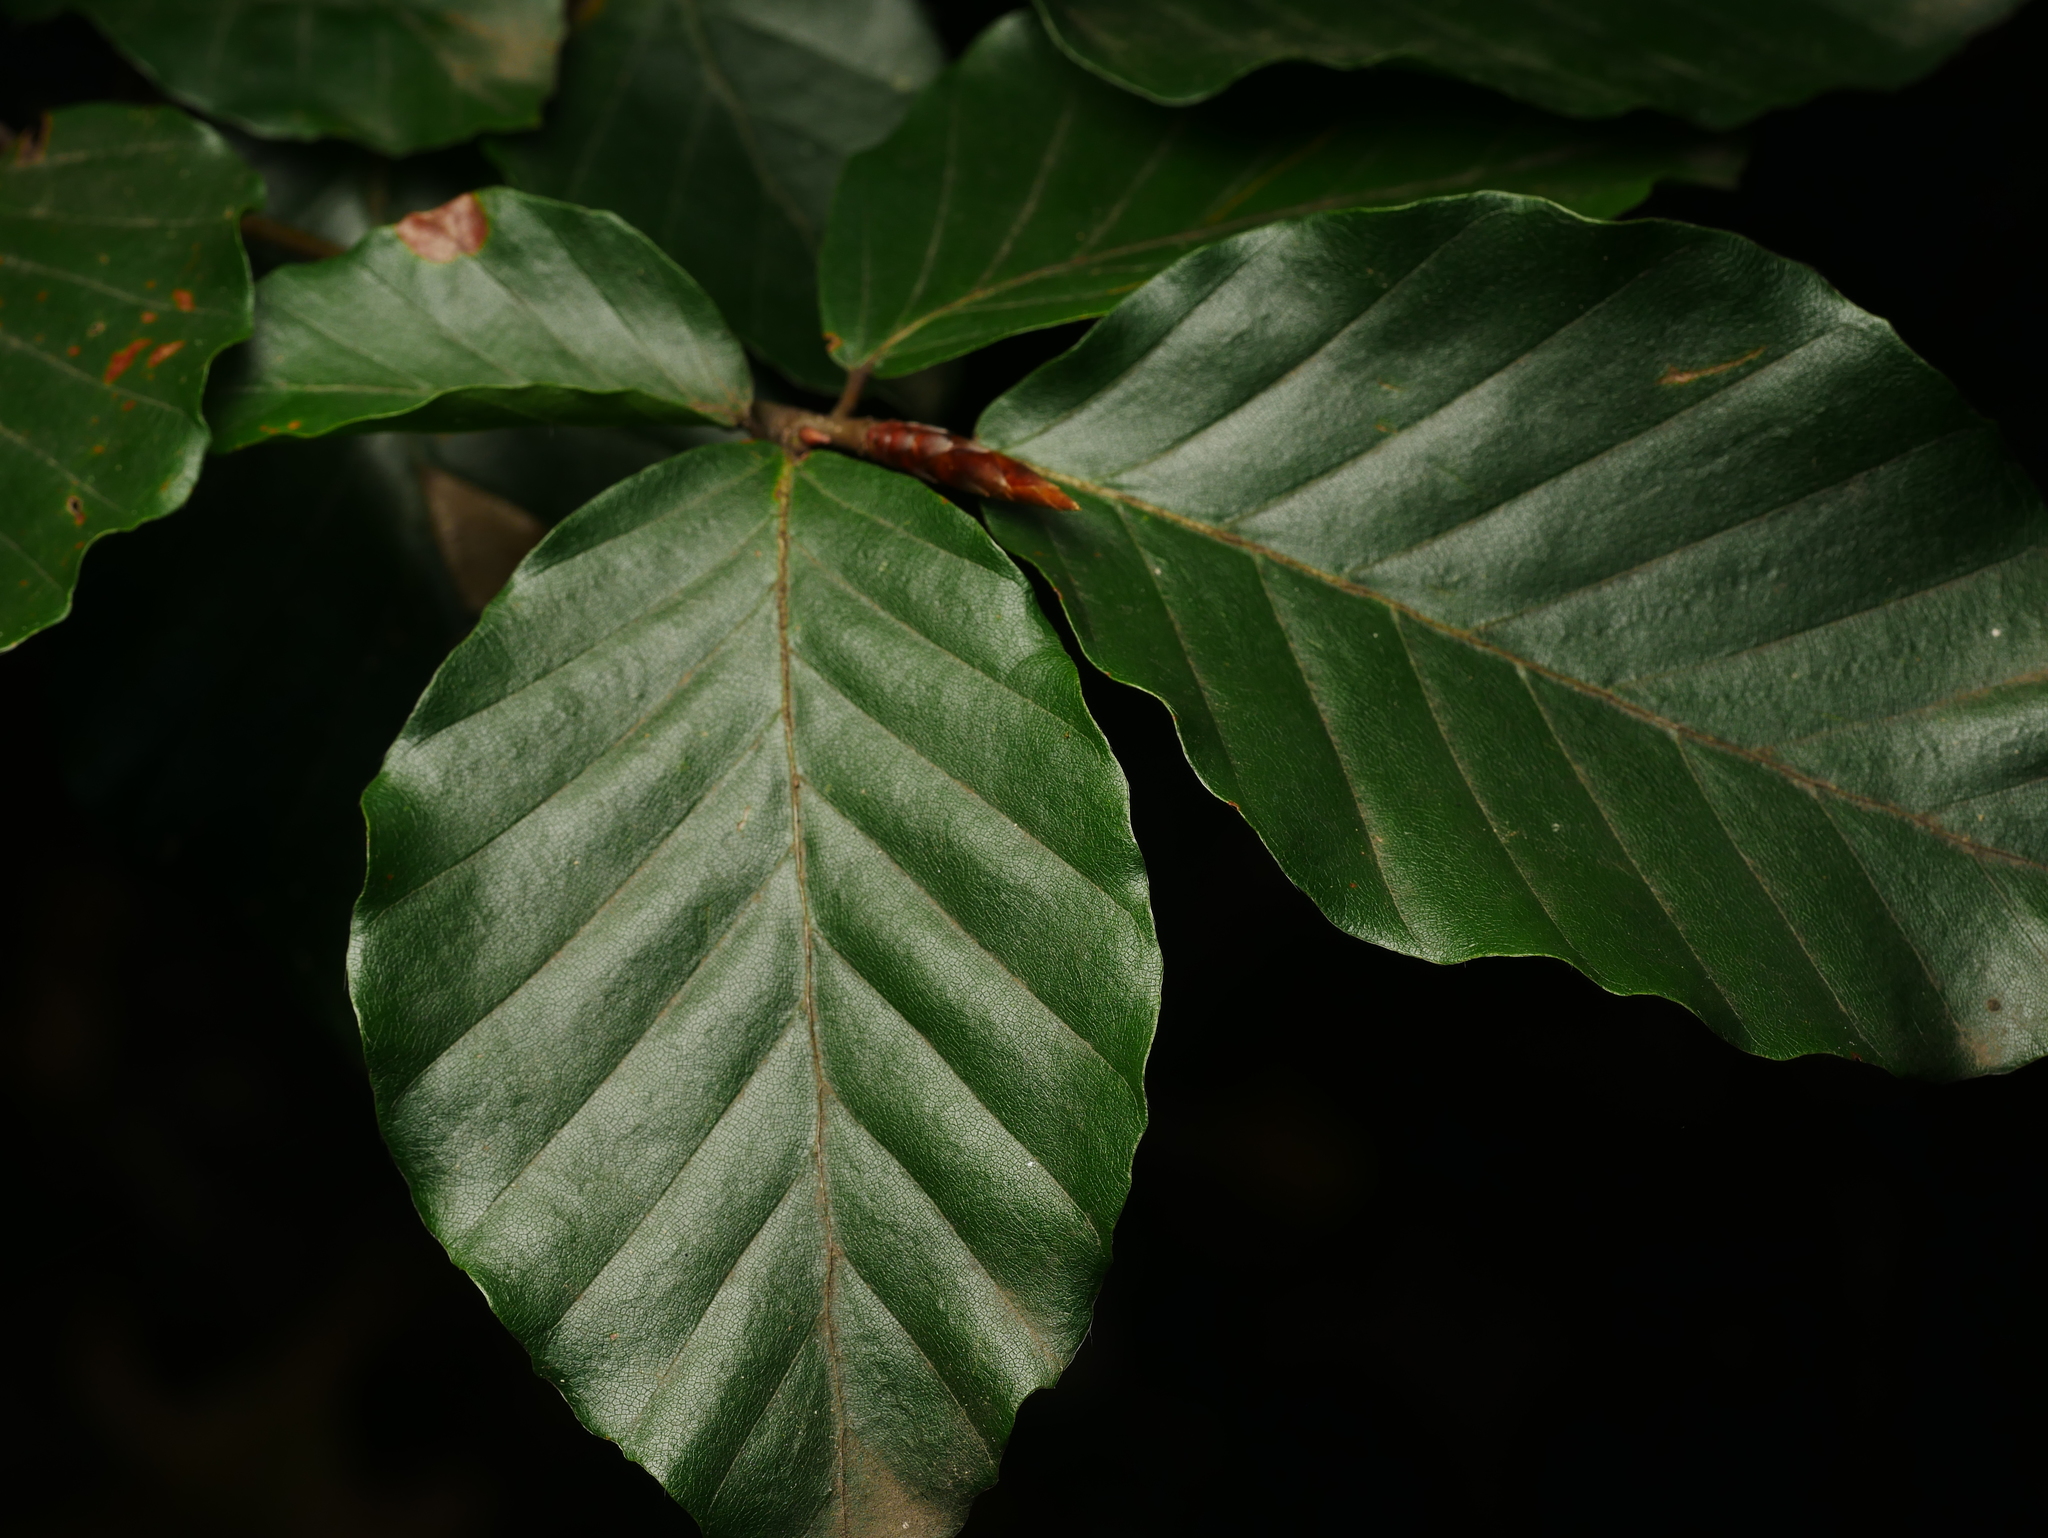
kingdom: Plantae
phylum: Tracheophyta
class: Magnoliopsida
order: Fagales
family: Fagaceae
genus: Fagus
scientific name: Fagus sylvatica
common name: Beech
